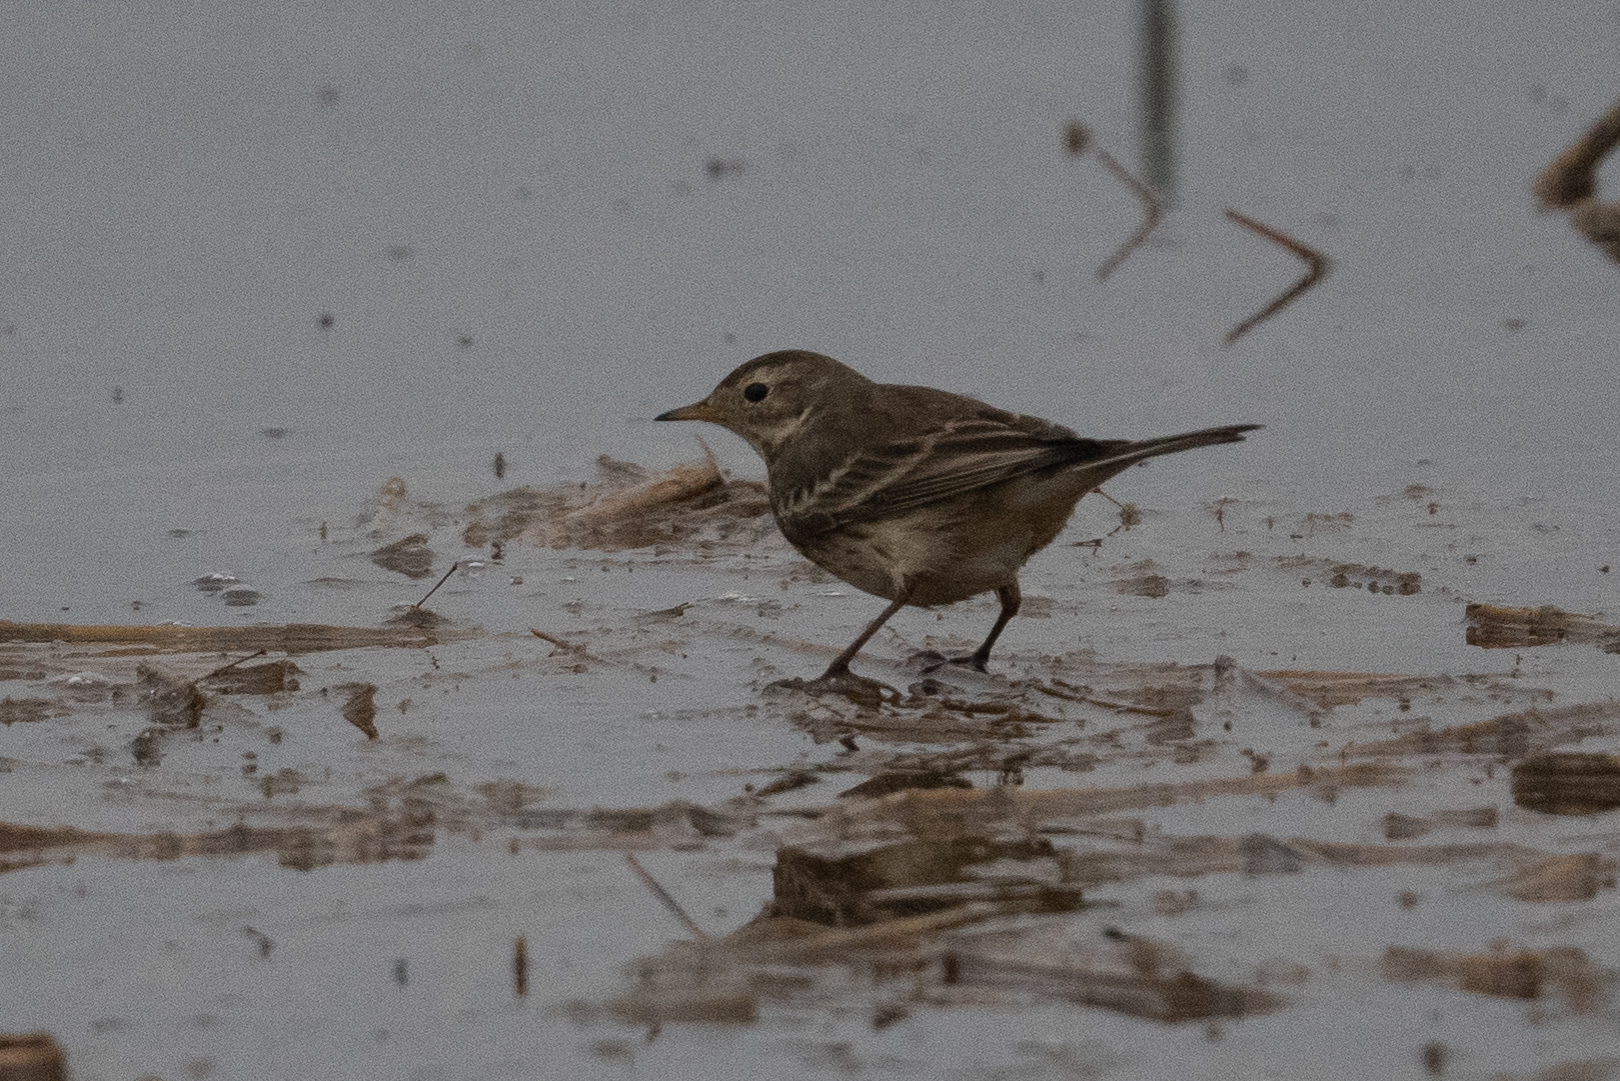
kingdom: Animalia
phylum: Chordata
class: Aves
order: Passeriformes
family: Motacillidae
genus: Anthus
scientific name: Anthus rubescens
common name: Buff-bellied pipit
